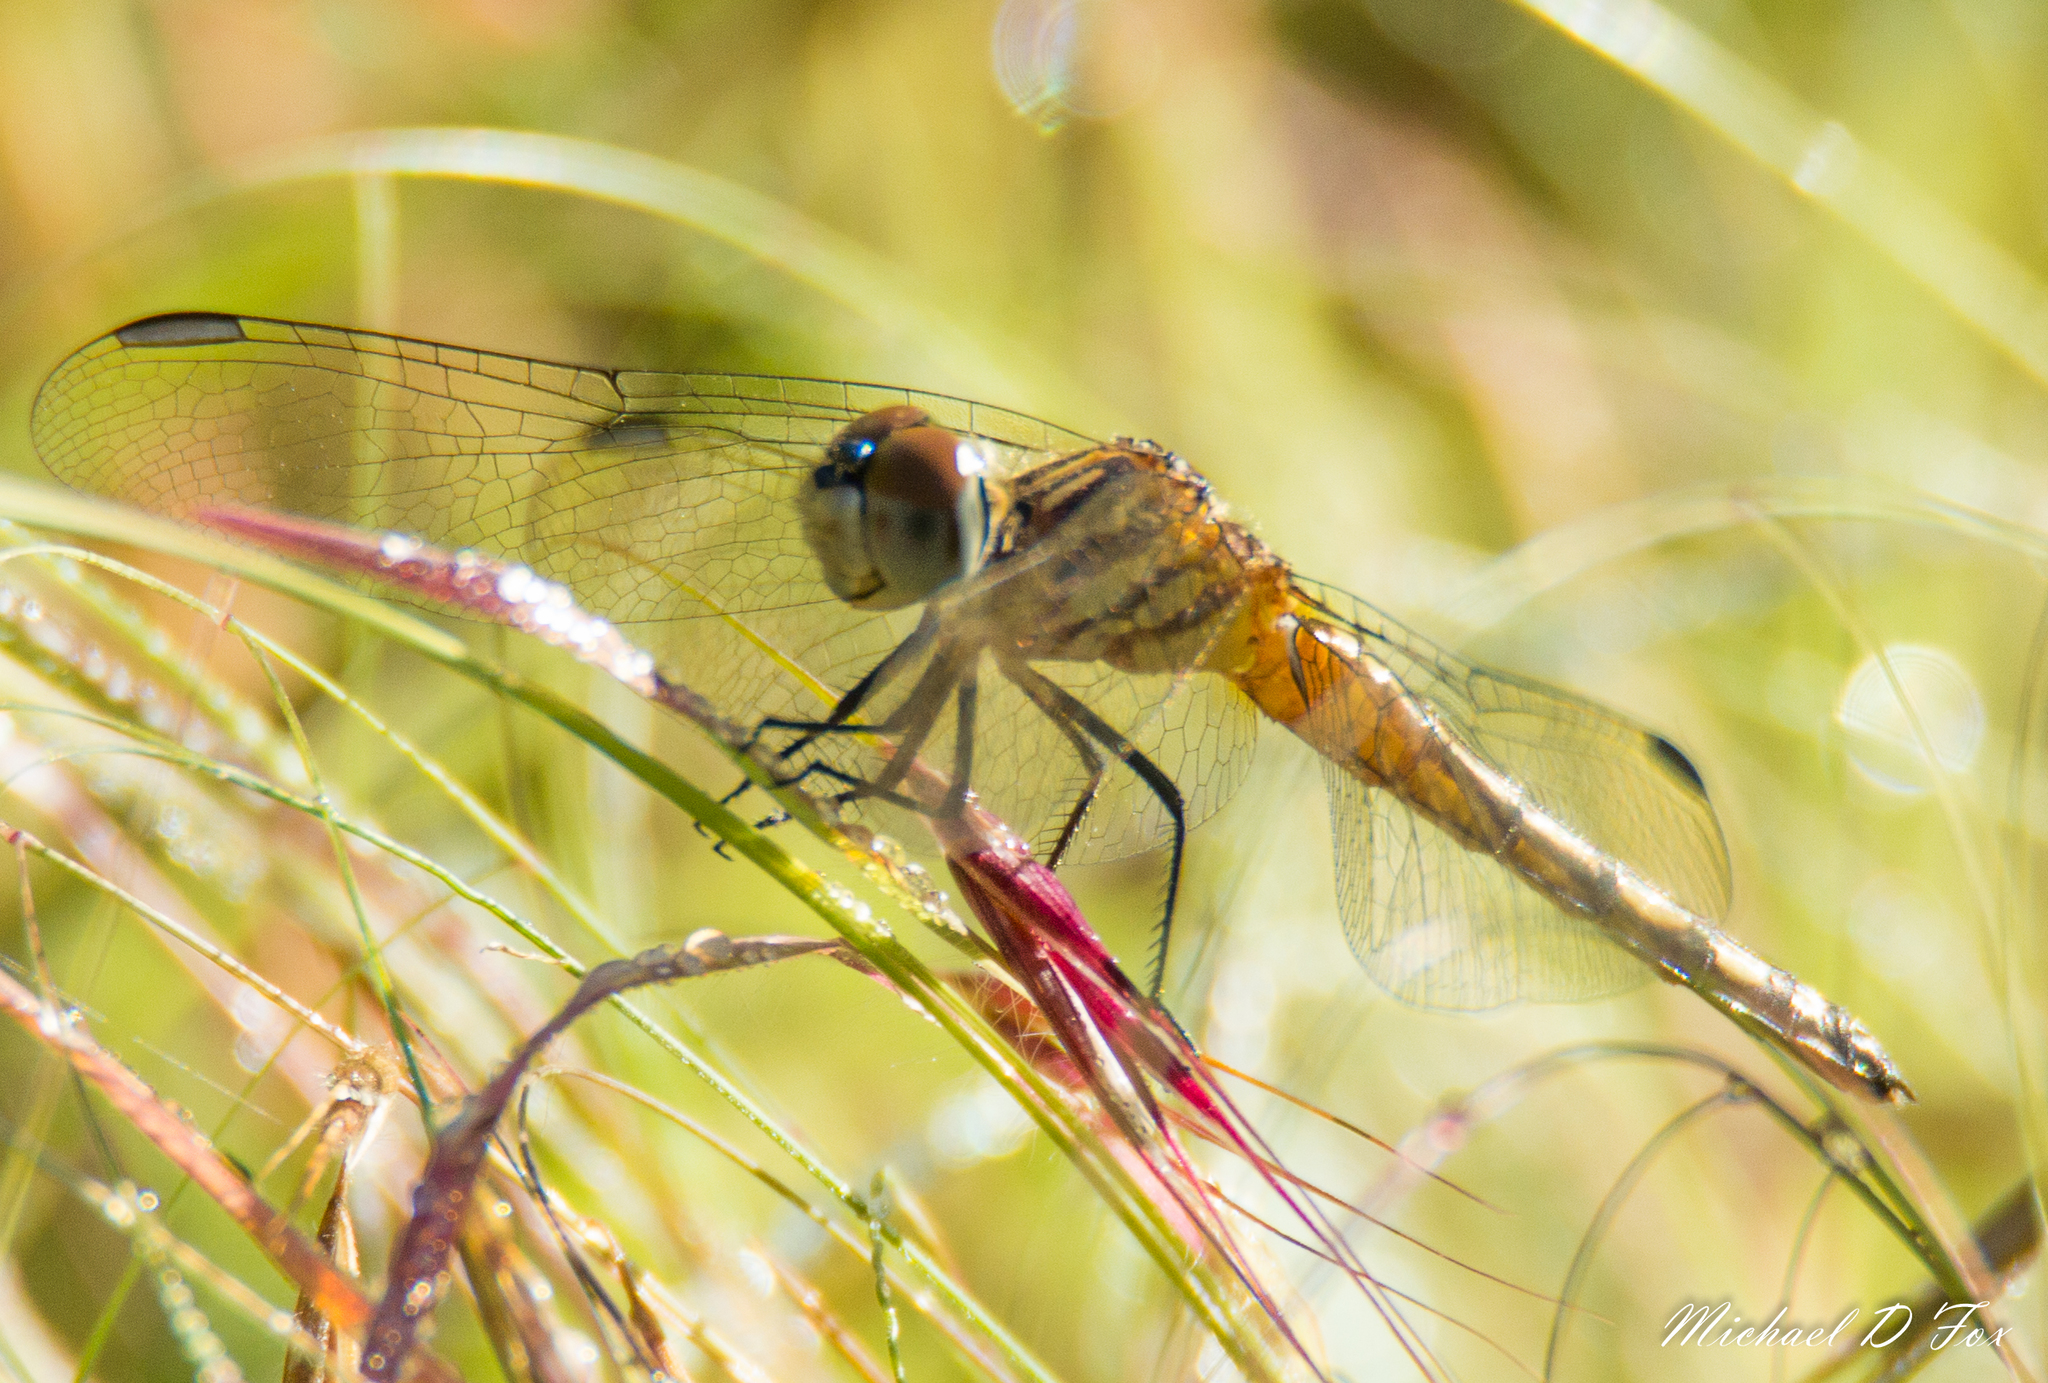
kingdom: Animalia
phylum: Arthropoda
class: Insecta
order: Odonata
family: Libellulidae
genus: Pachydiplax
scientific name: Pachydiplax longipennis
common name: Blue dasher
